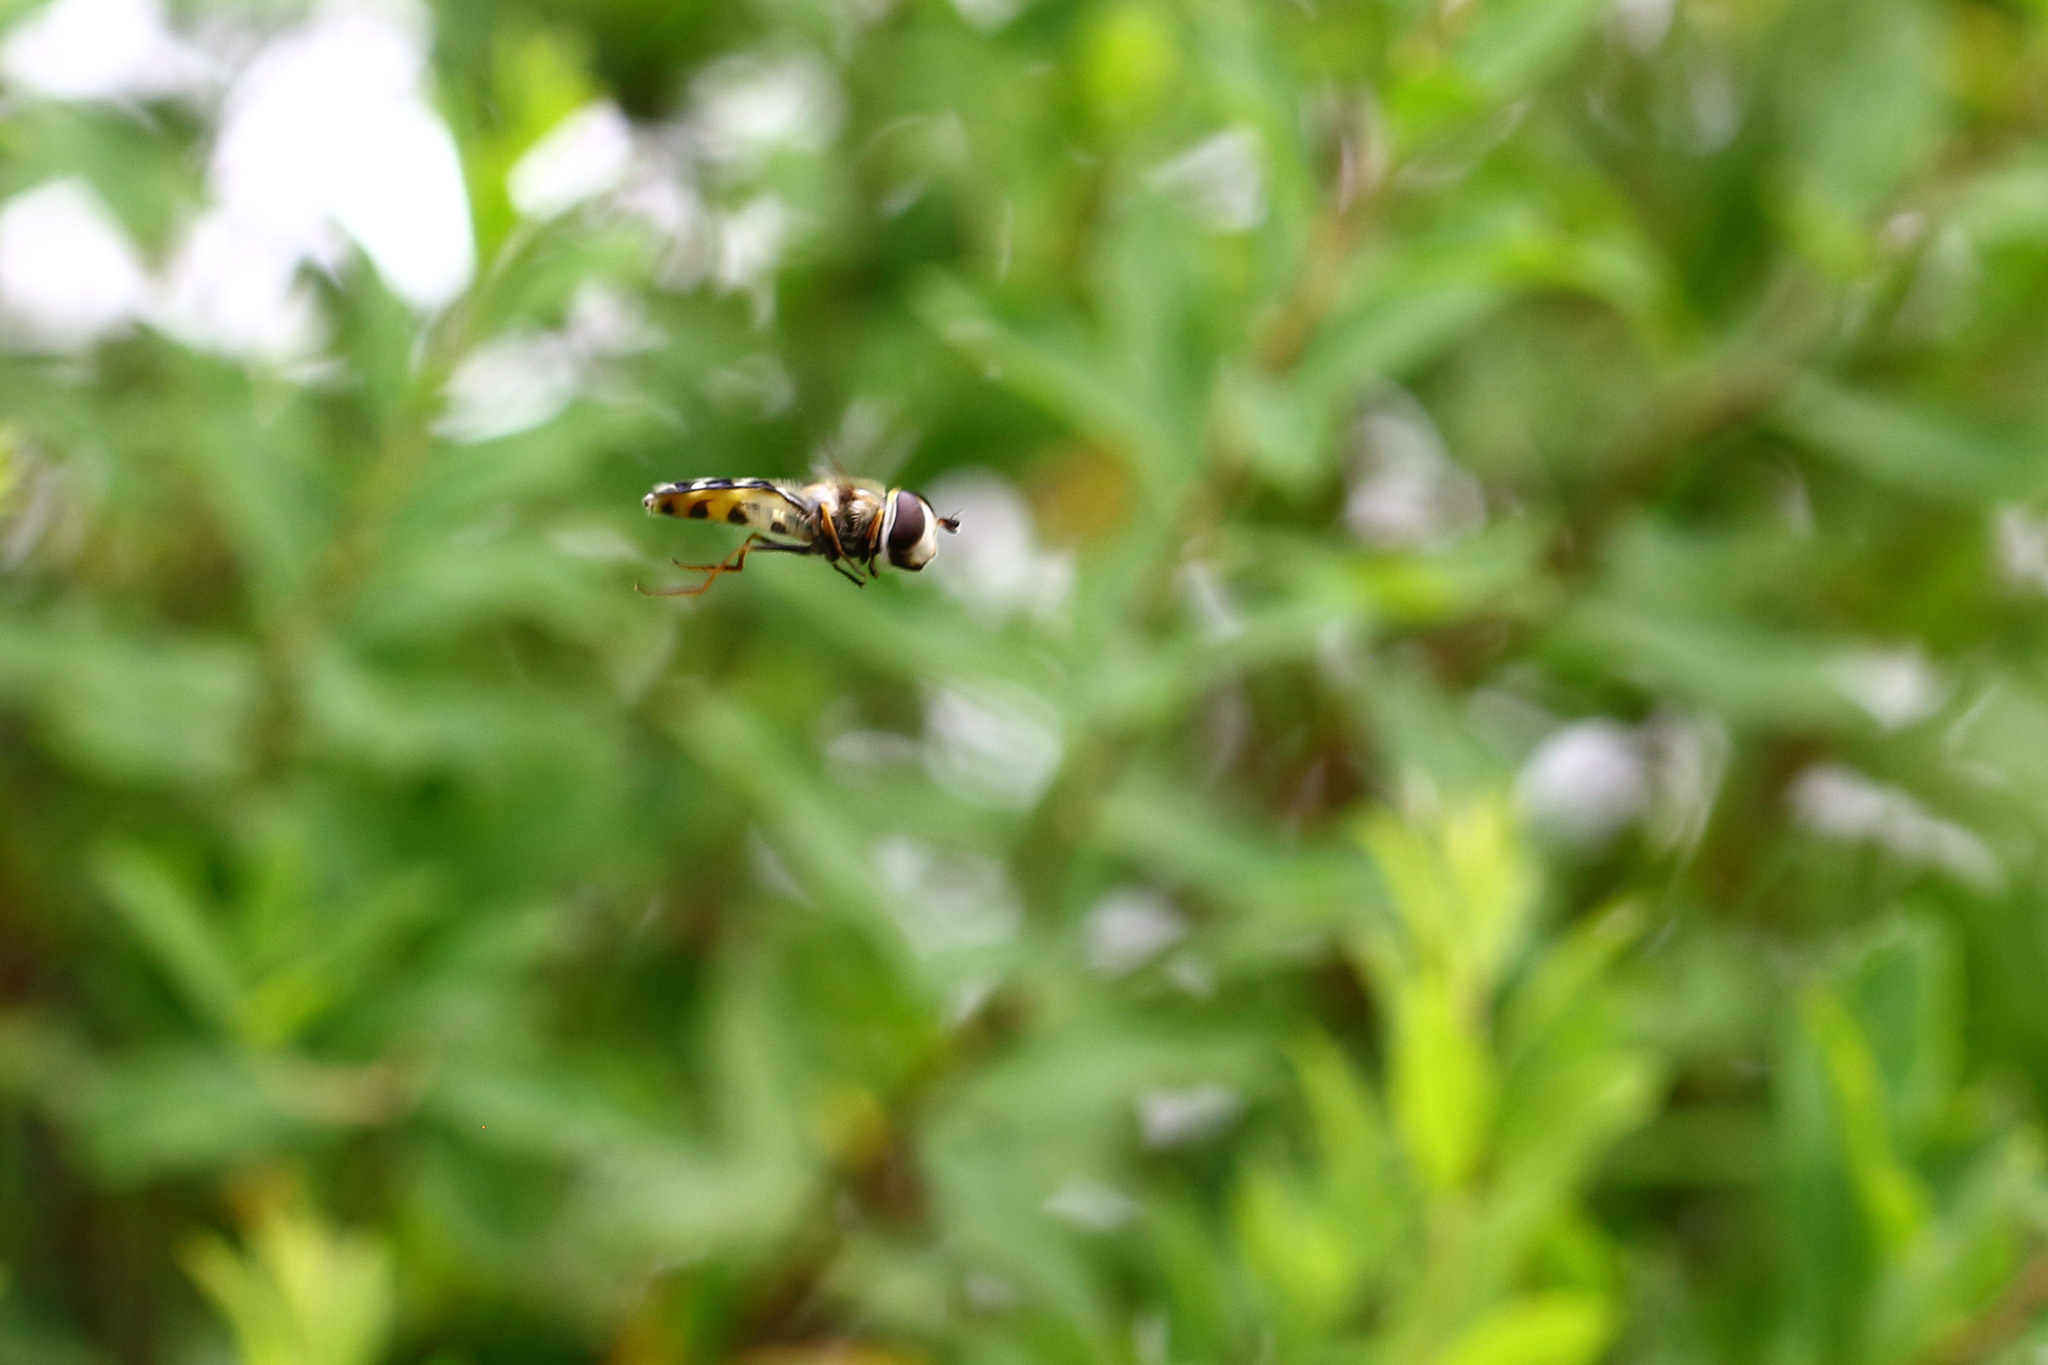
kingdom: Animalia
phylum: Arthropoda
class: Insecta
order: Diptera
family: Syrphidae
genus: Scaeva
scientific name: Scaeva pyrastri
